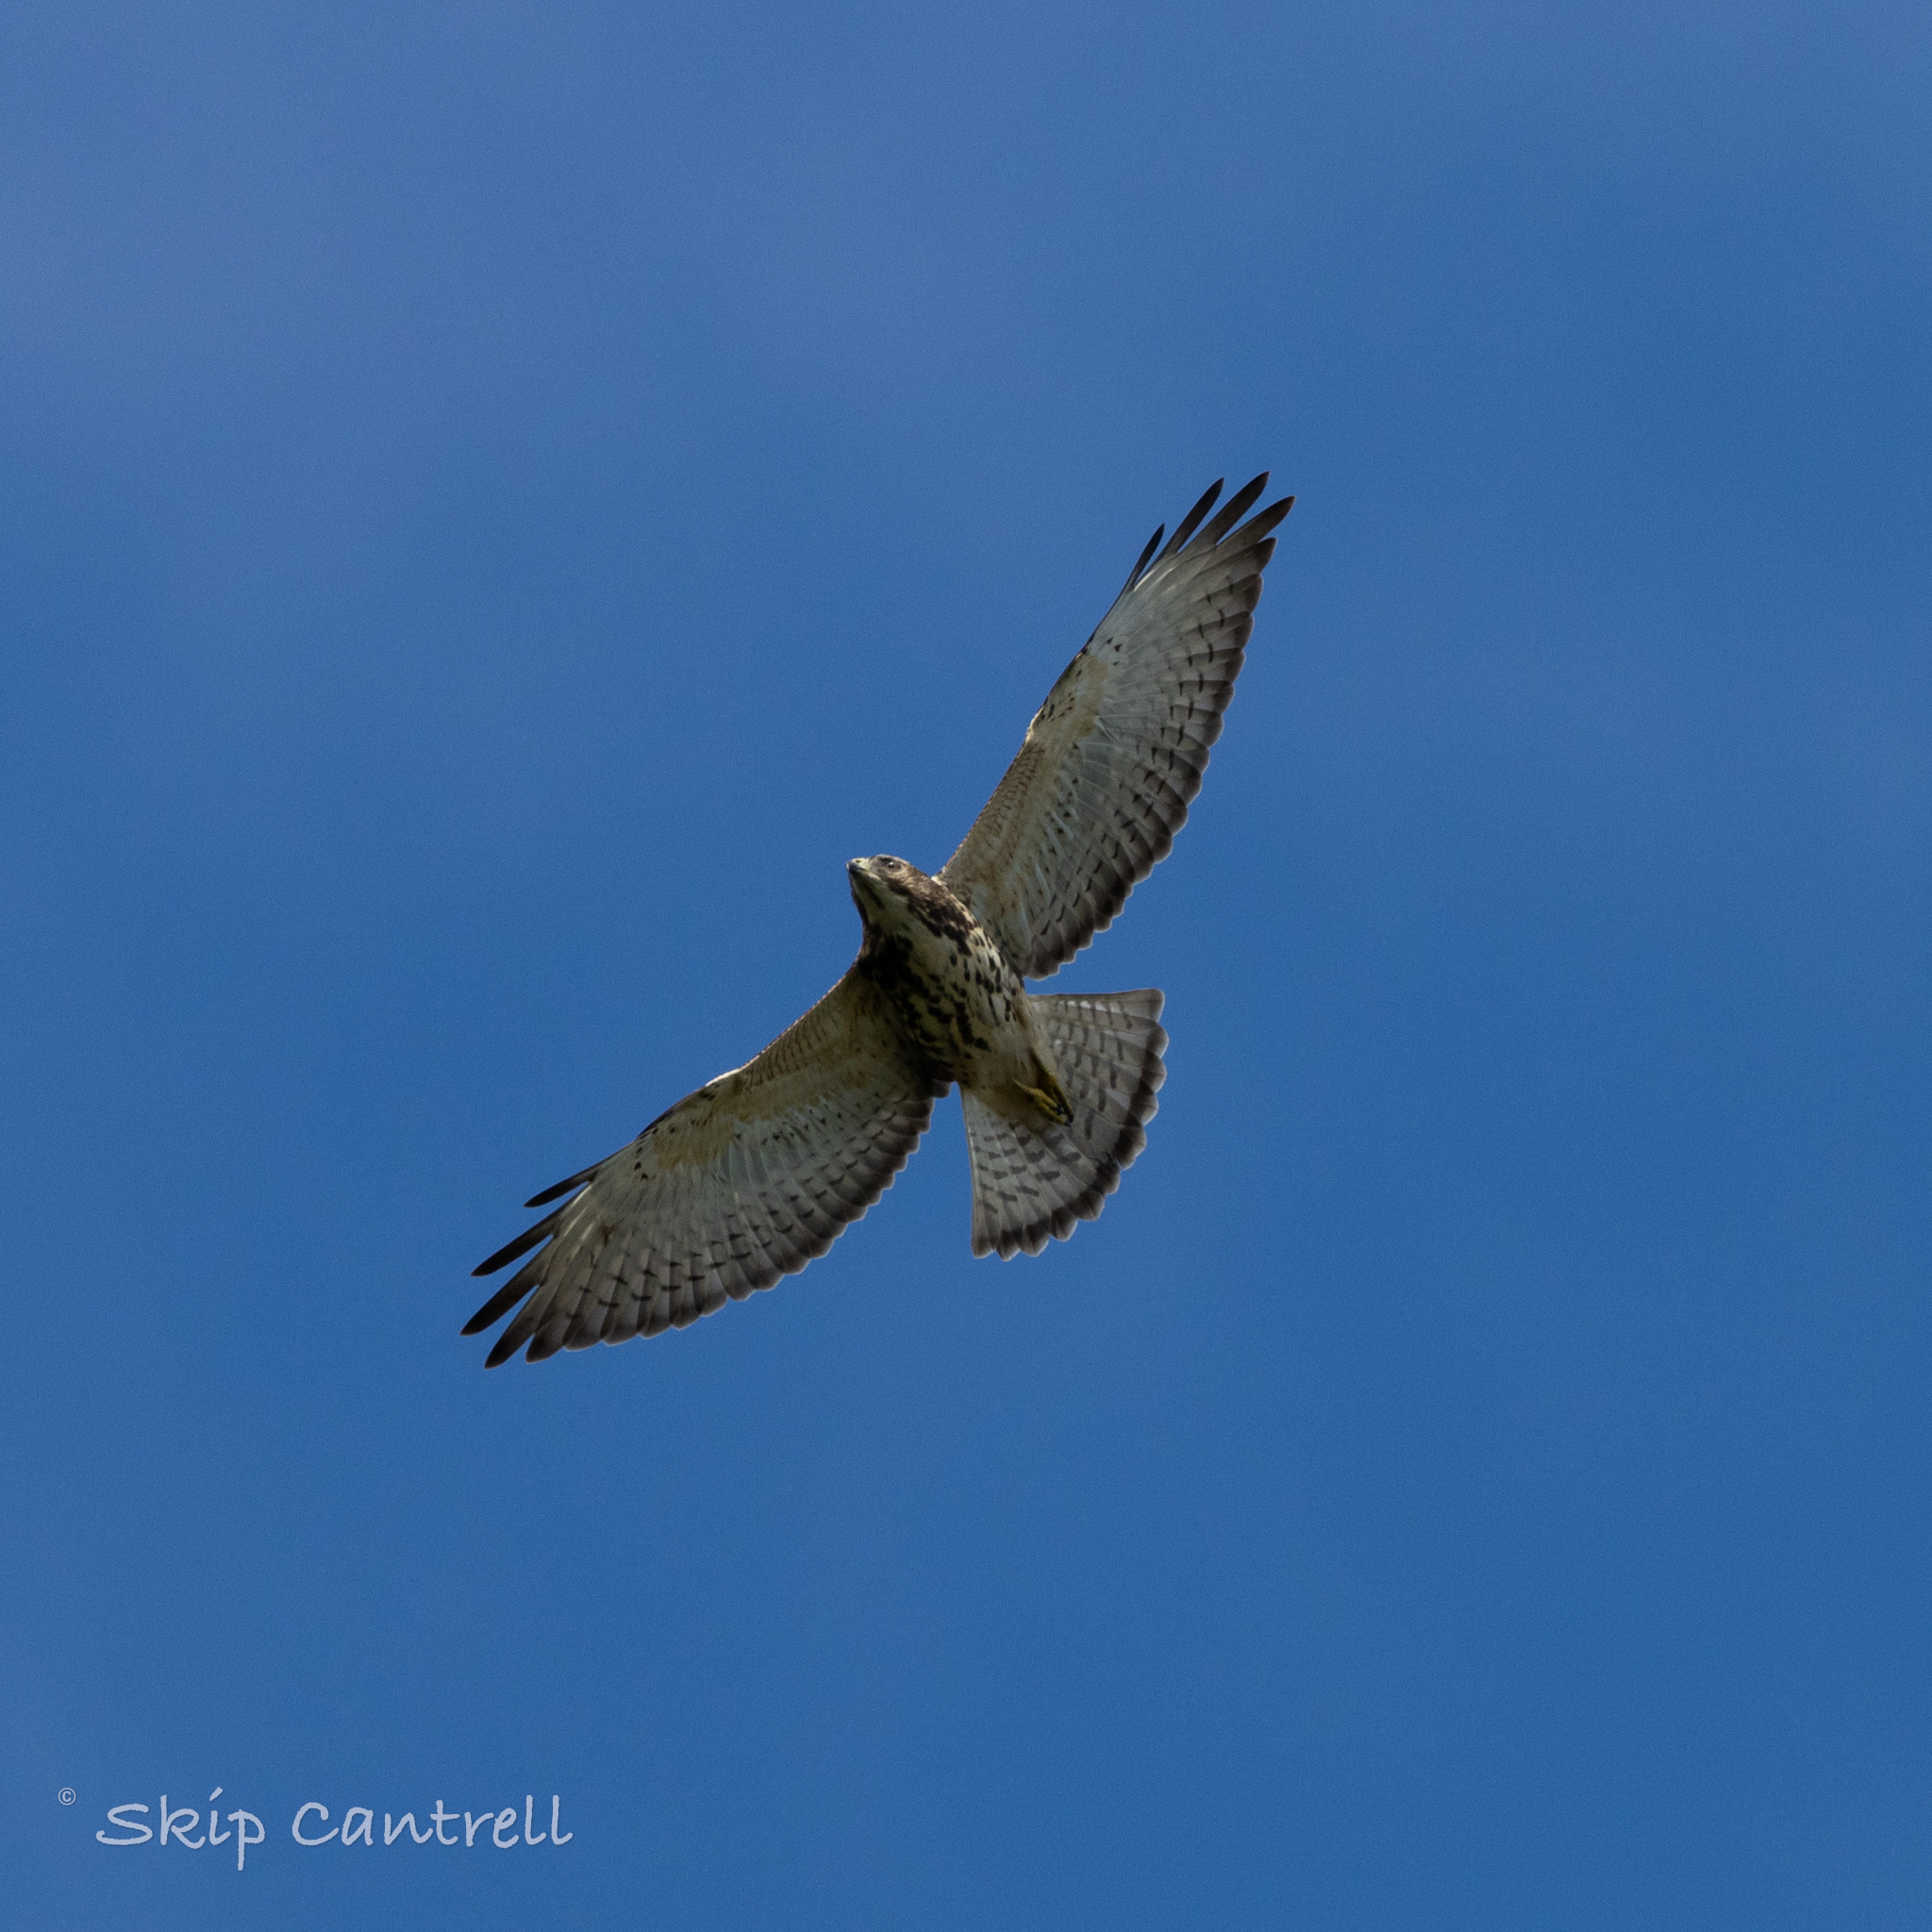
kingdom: Animalia
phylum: Chordata
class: Aves
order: Accipitriformes
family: Accipitridae
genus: Buteo
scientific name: Buteo platypterus
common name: Broad-winged hawk
